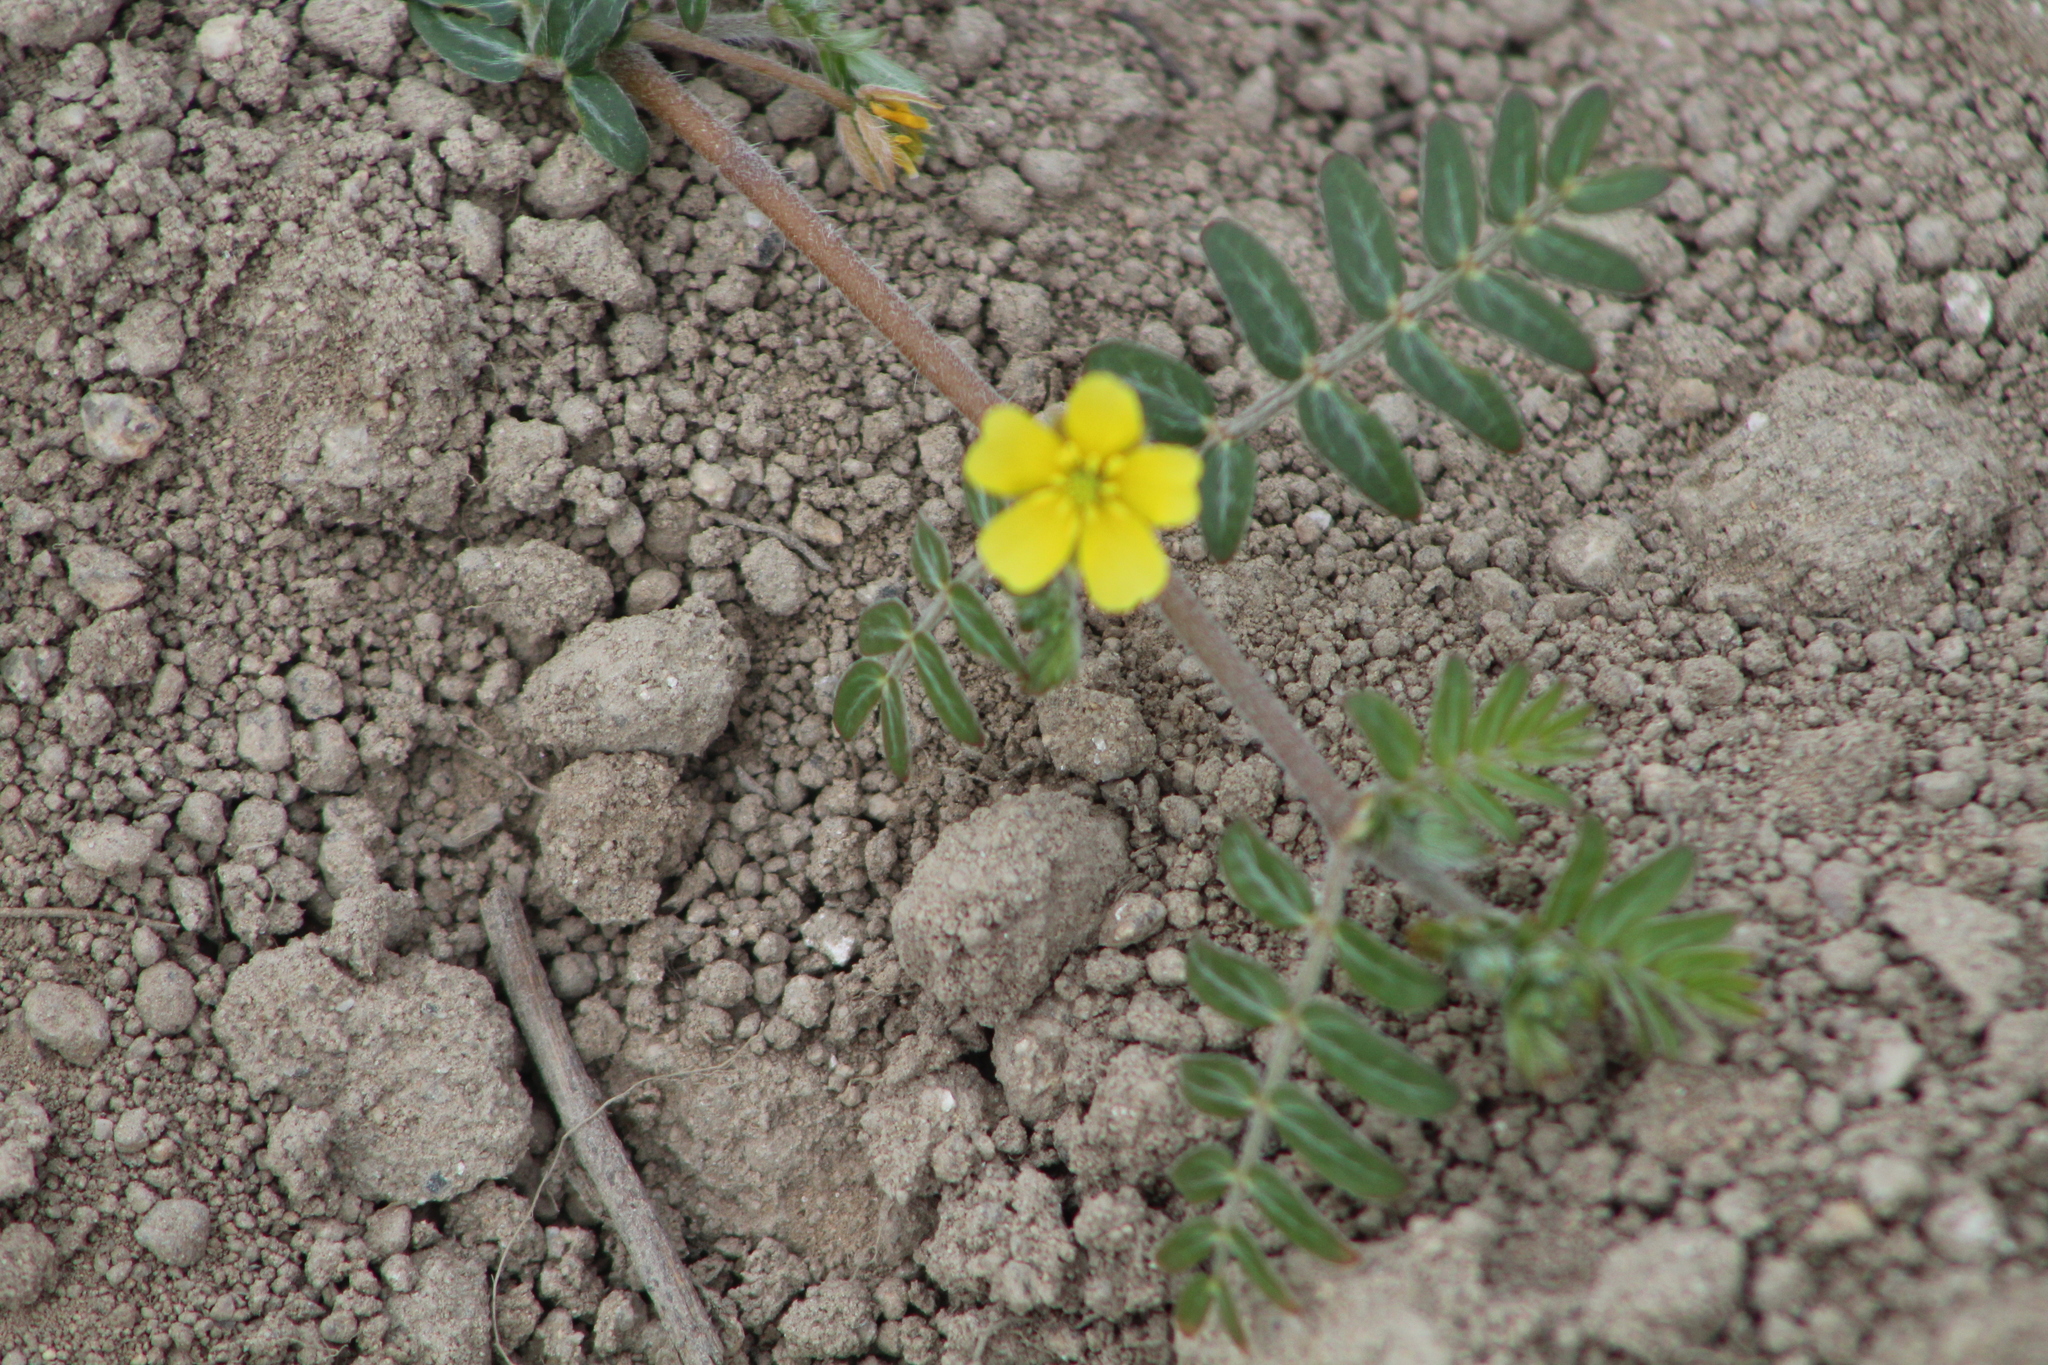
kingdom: Plantae
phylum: Tracheophyta
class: Magnoliopsida
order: Zygophyllales
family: Zygophyllaceae
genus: Tribulus
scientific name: Tribulus terrestris
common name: Puncturevine
